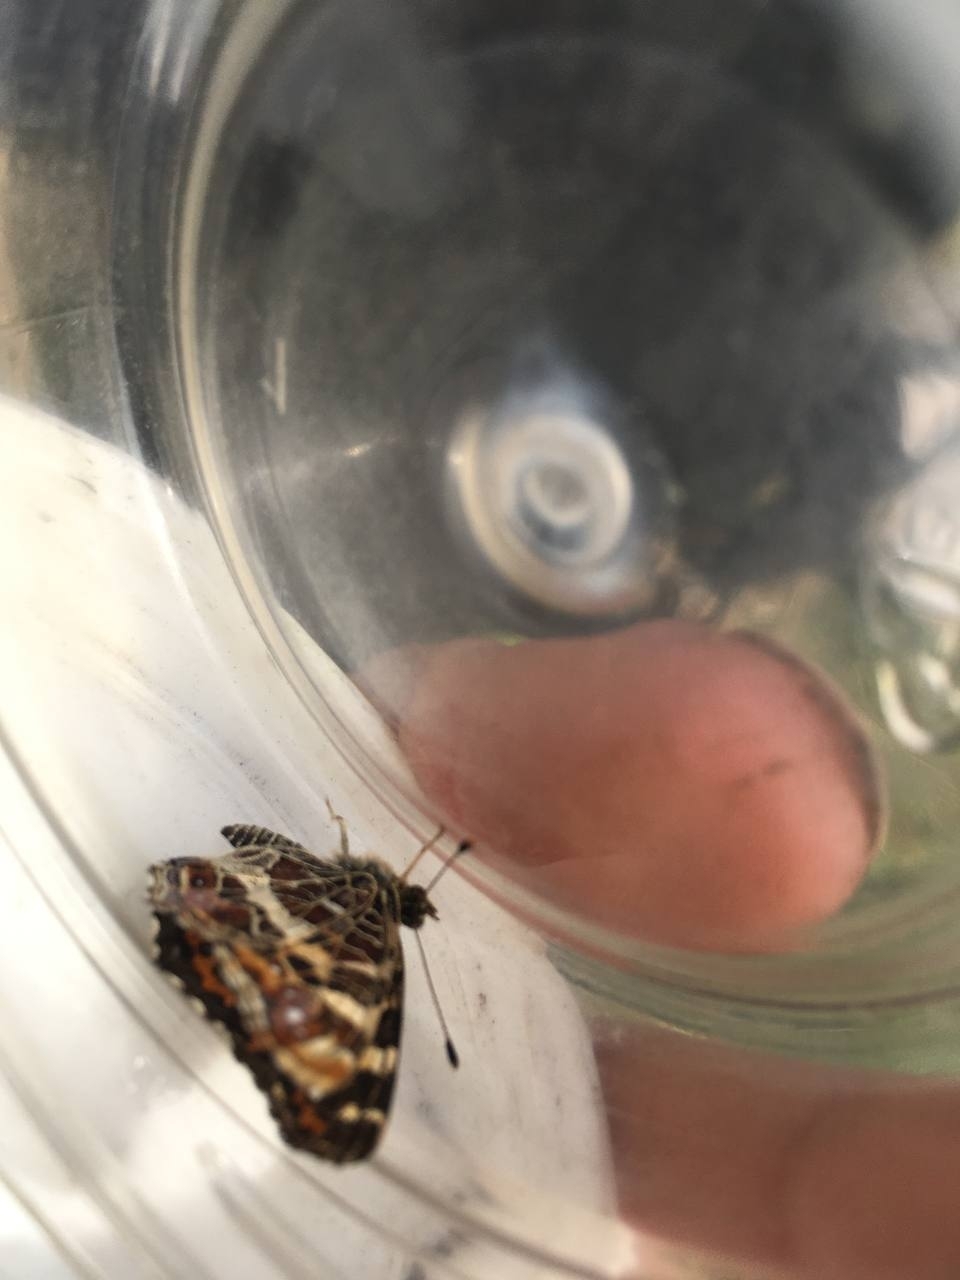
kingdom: Animalia
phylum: Arthropoda
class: Insecta
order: Lepidoptera
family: Nymphalidae
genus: Araschnia
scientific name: Araschnia levana
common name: Map butterfly
